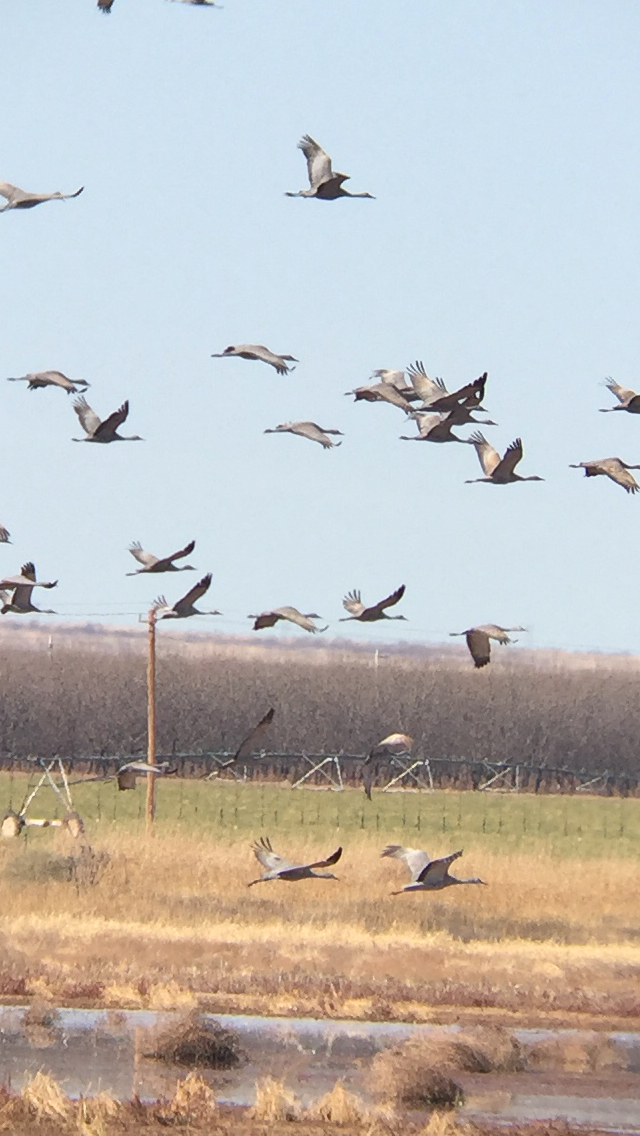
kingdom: Animalia
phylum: Chordata
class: Aves
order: Gruiformes
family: Gruidae
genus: Grus
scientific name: Grus canadensis
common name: Sandhill crane
